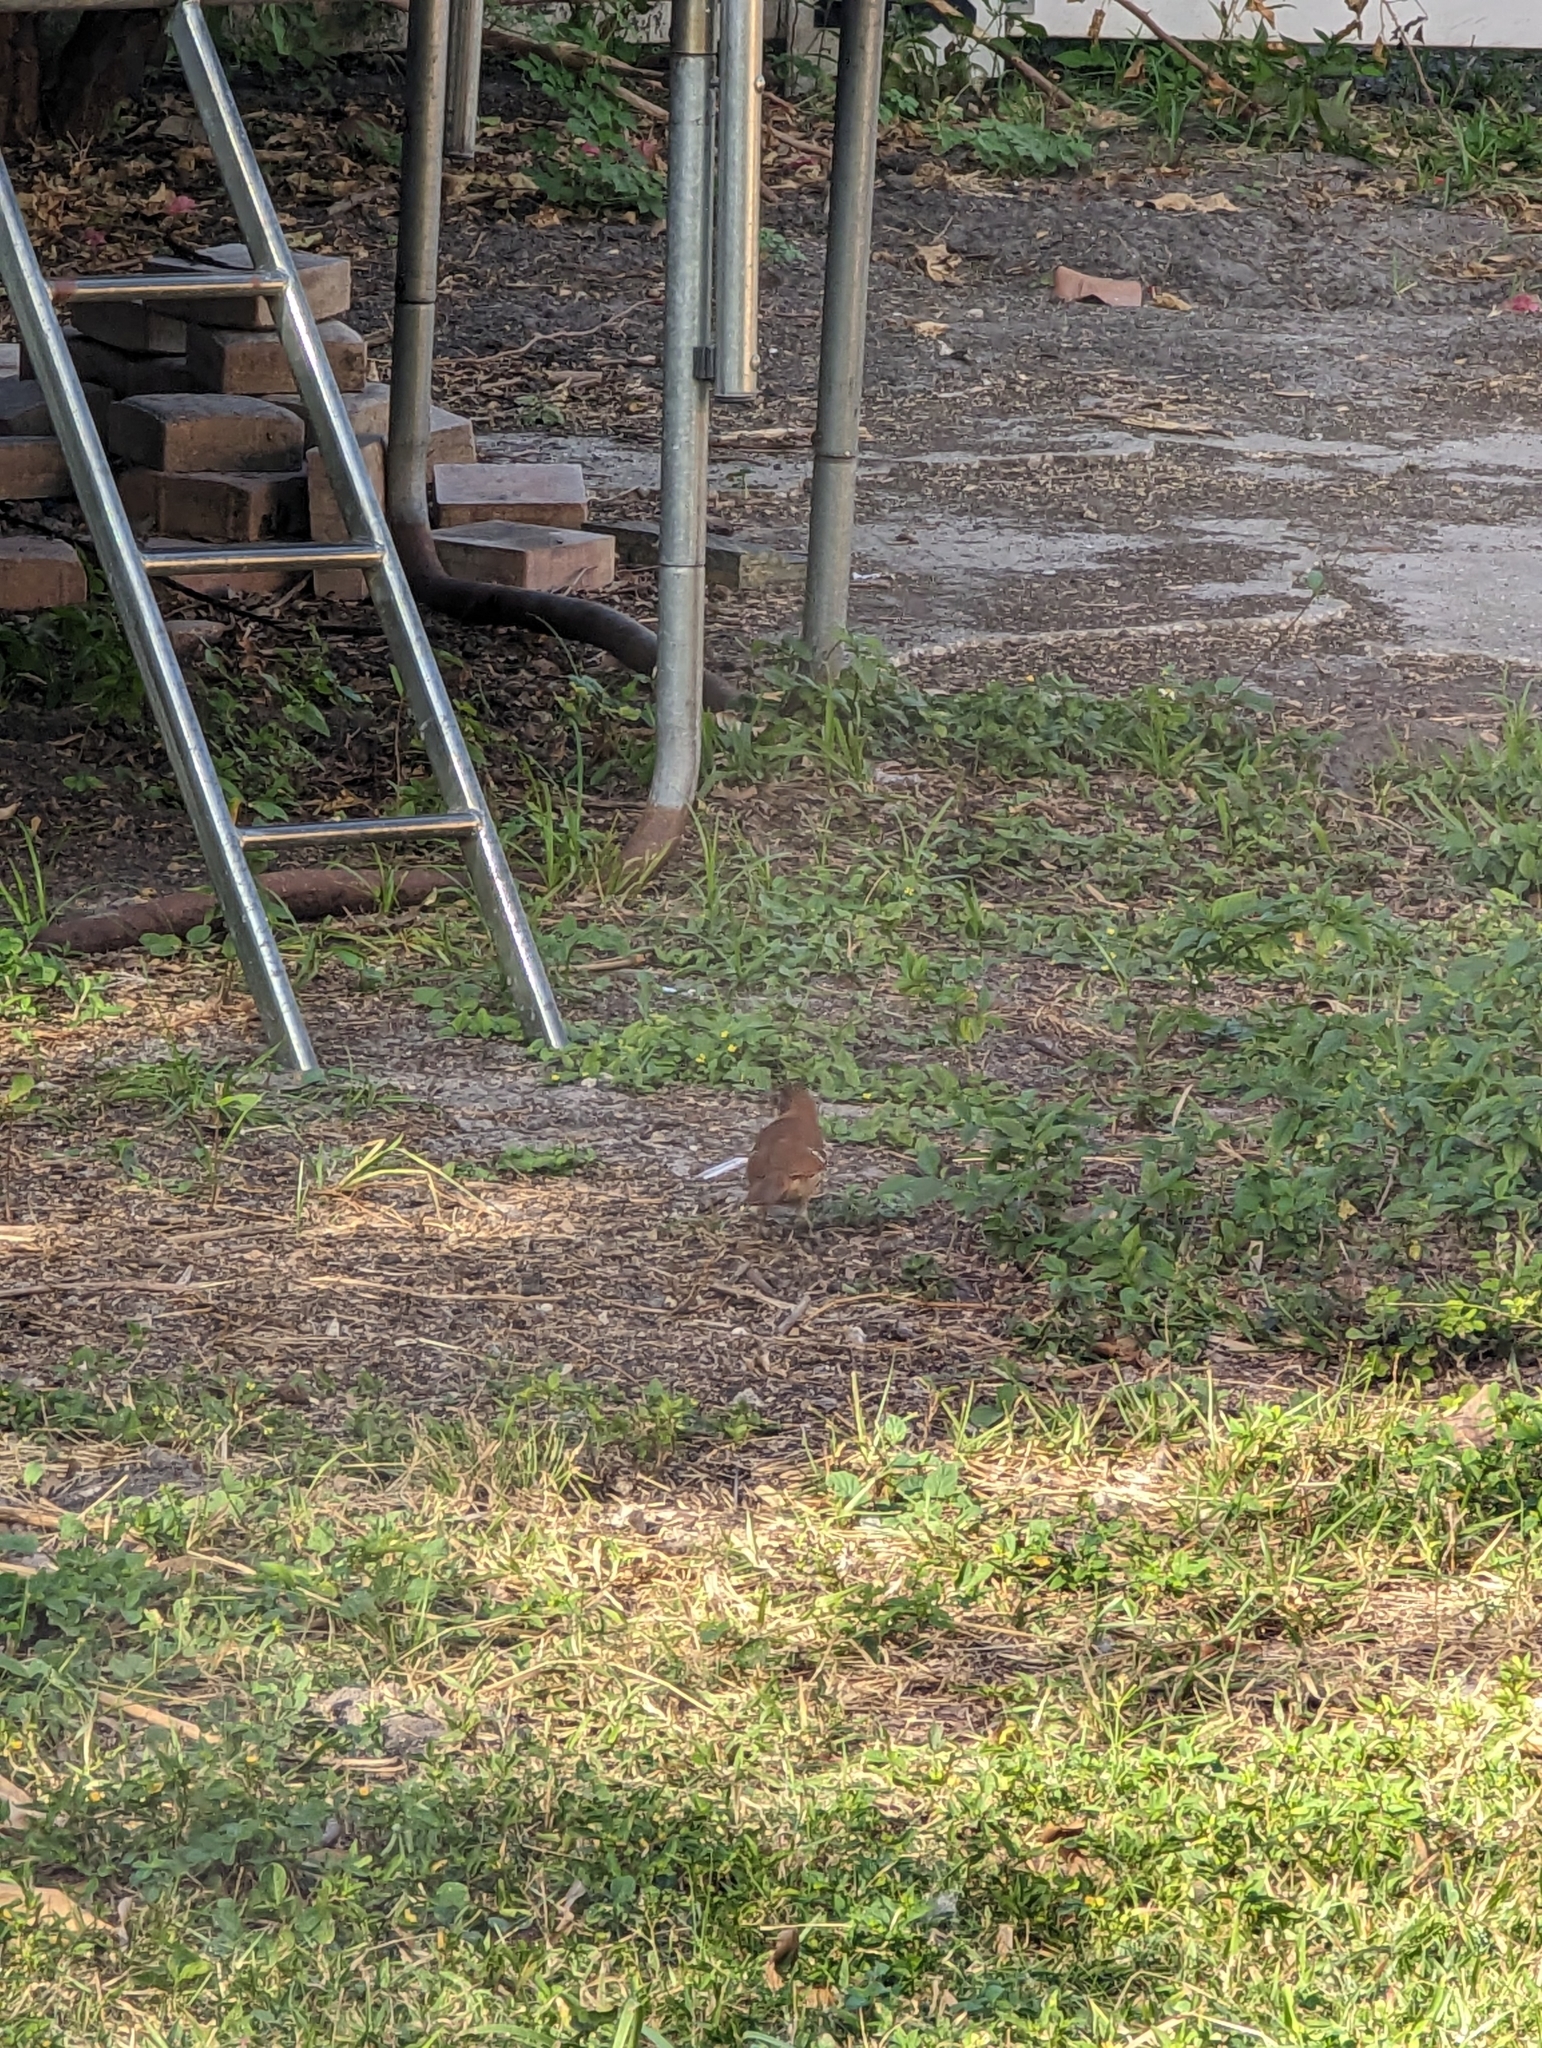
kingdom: Animalia
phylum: Chordata
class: Aves
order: Passeriformes
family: Mimidae
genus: Toxostoma
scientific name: Toxostoma rufum
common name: Brown thrasher
